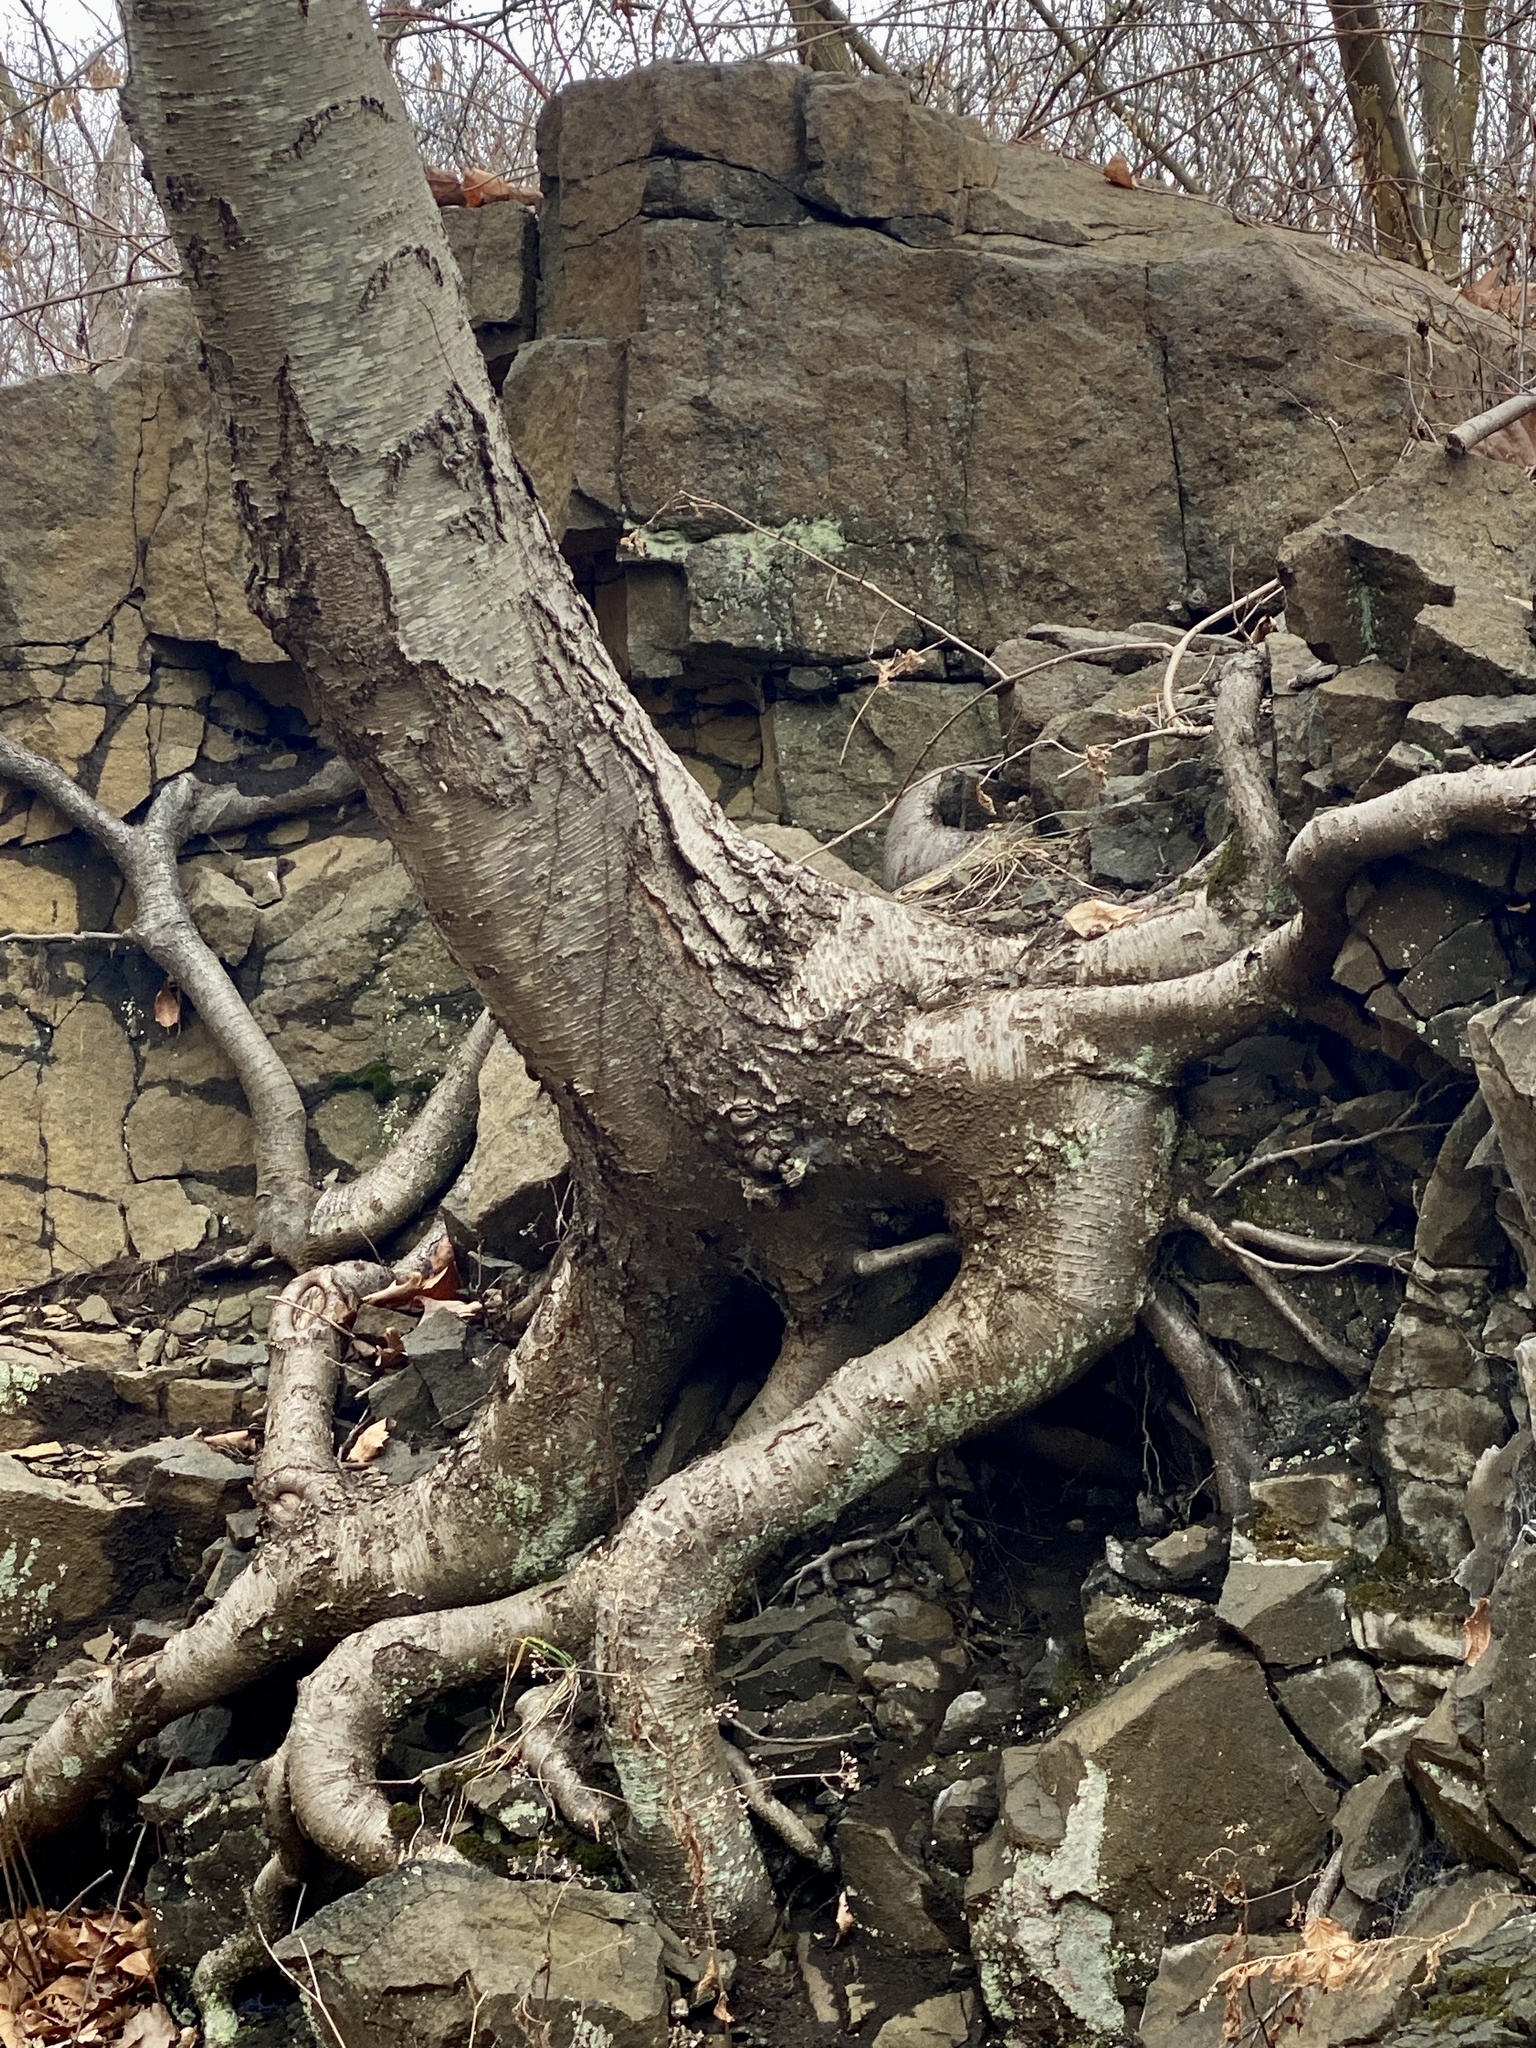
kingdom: Plantae
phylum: Tracheophyta
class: Magnoliopsida
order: Fagales
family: Betulaceae
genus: Betula
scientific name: Betula lenta
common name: Black birch
